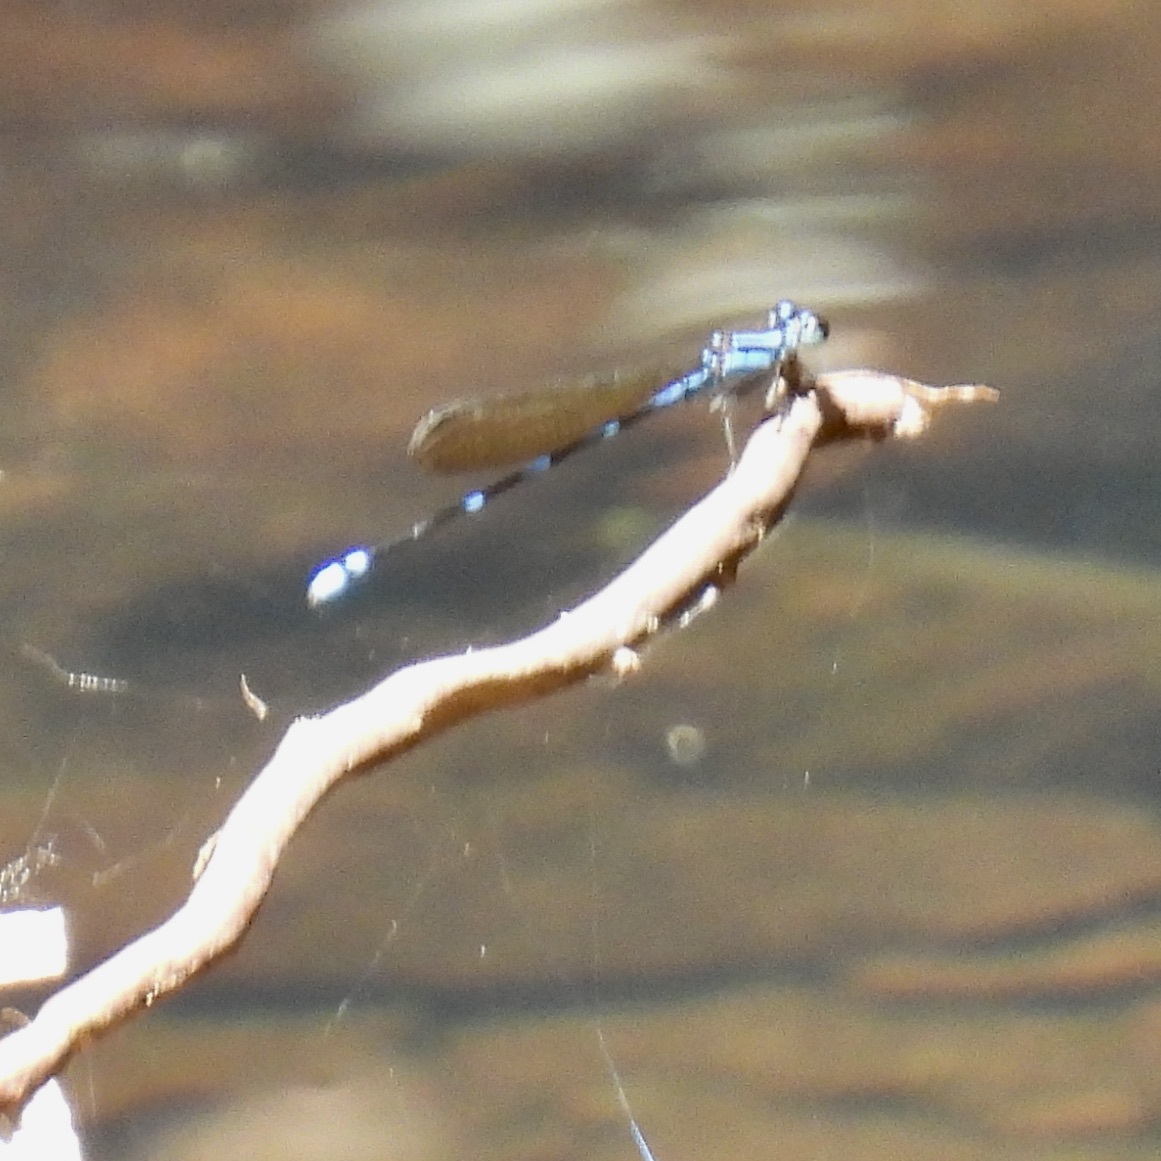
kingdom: Animalia
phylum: Arthropoda
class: Insecta
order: Odonata
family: Coenagrionidae
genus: Argia
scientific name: Argia adamsi
